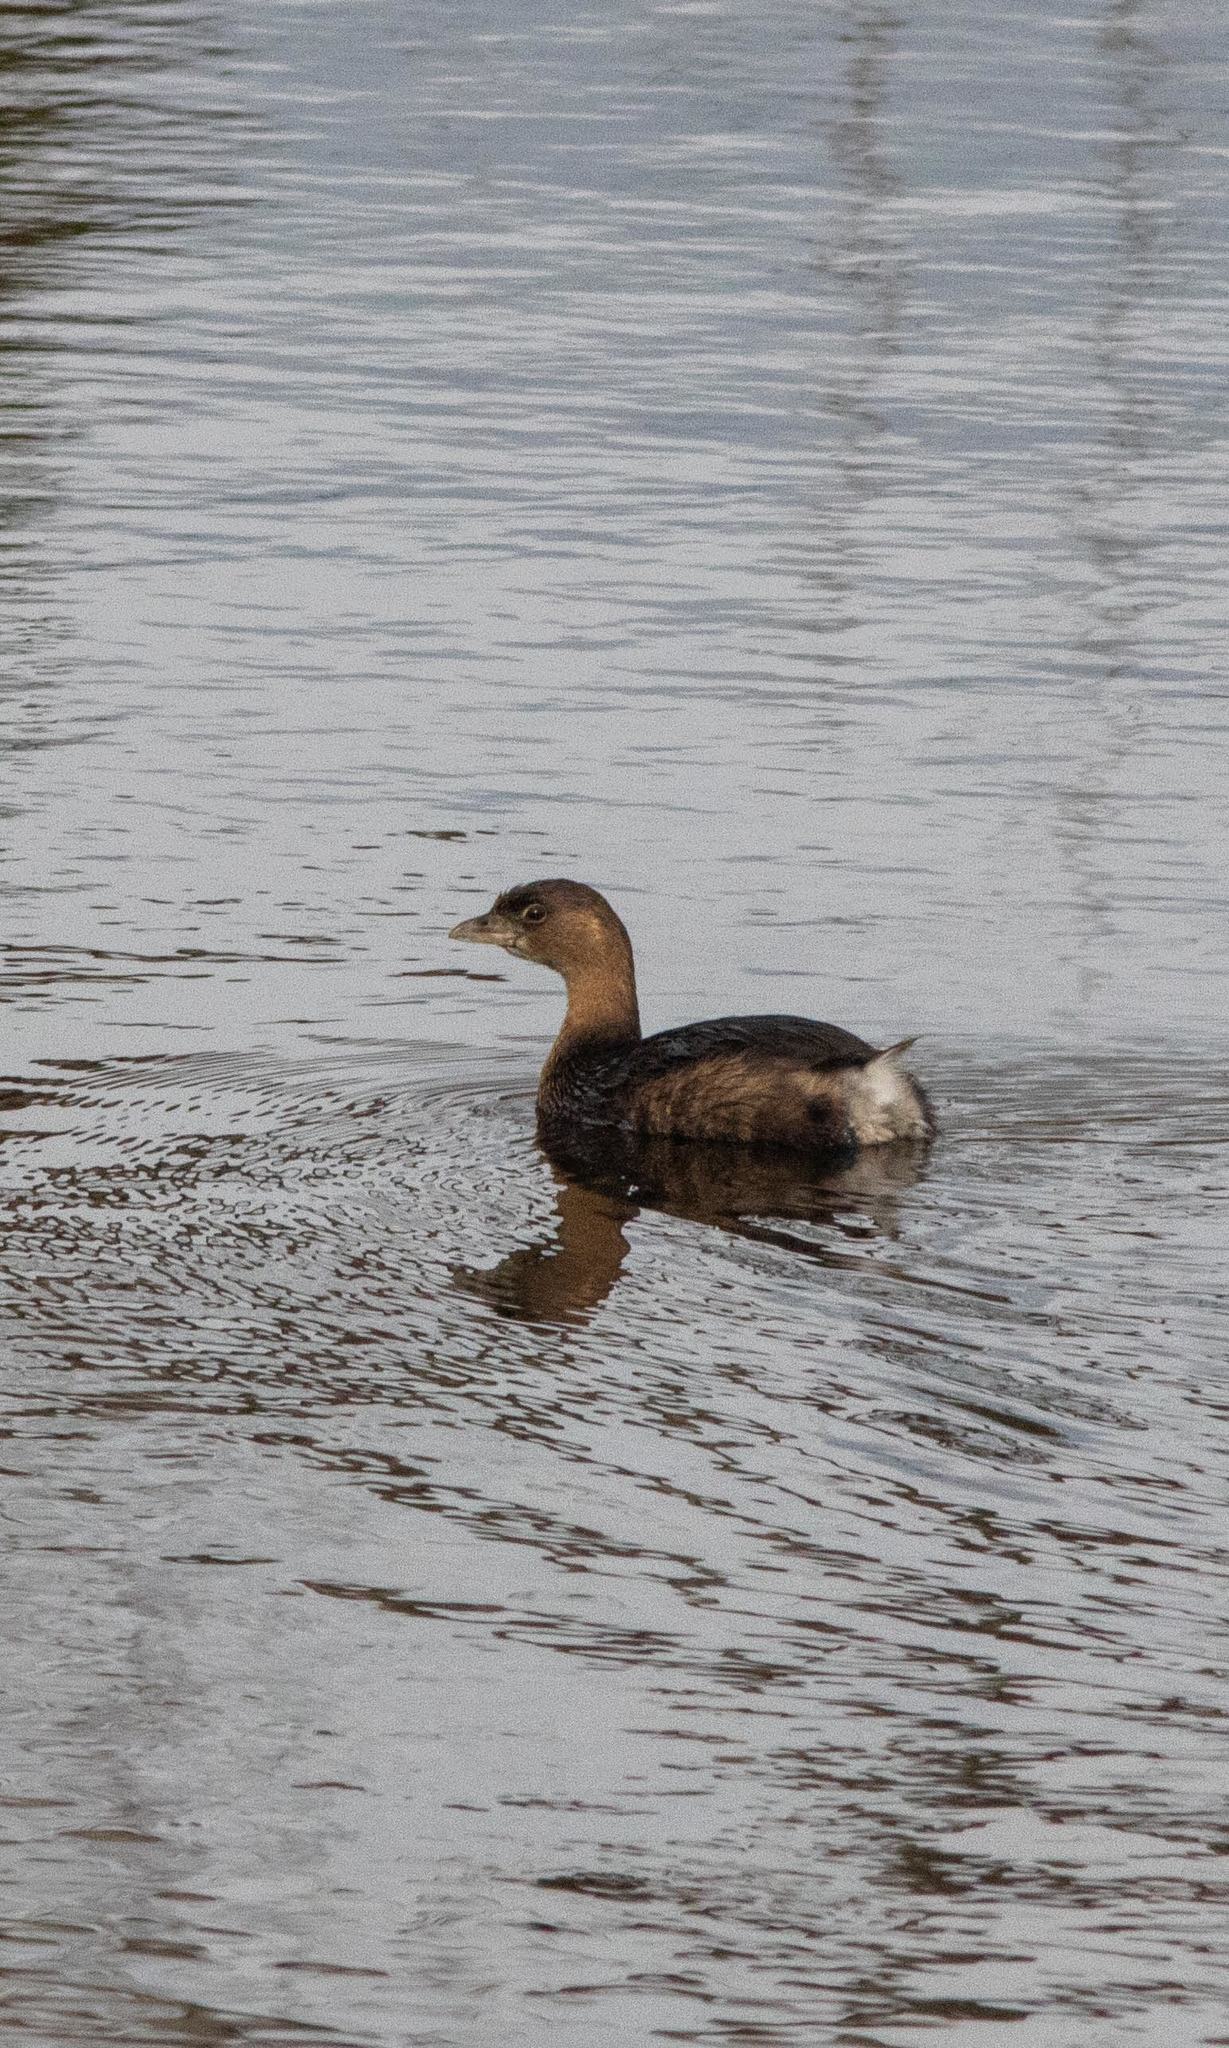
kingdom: Animalia
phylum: Chordata
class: Aves
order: Podicipediformes
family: Podicipedidae
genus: Podilymbus
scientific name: Podilymbus podiceps
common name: Pied-billed grebe
